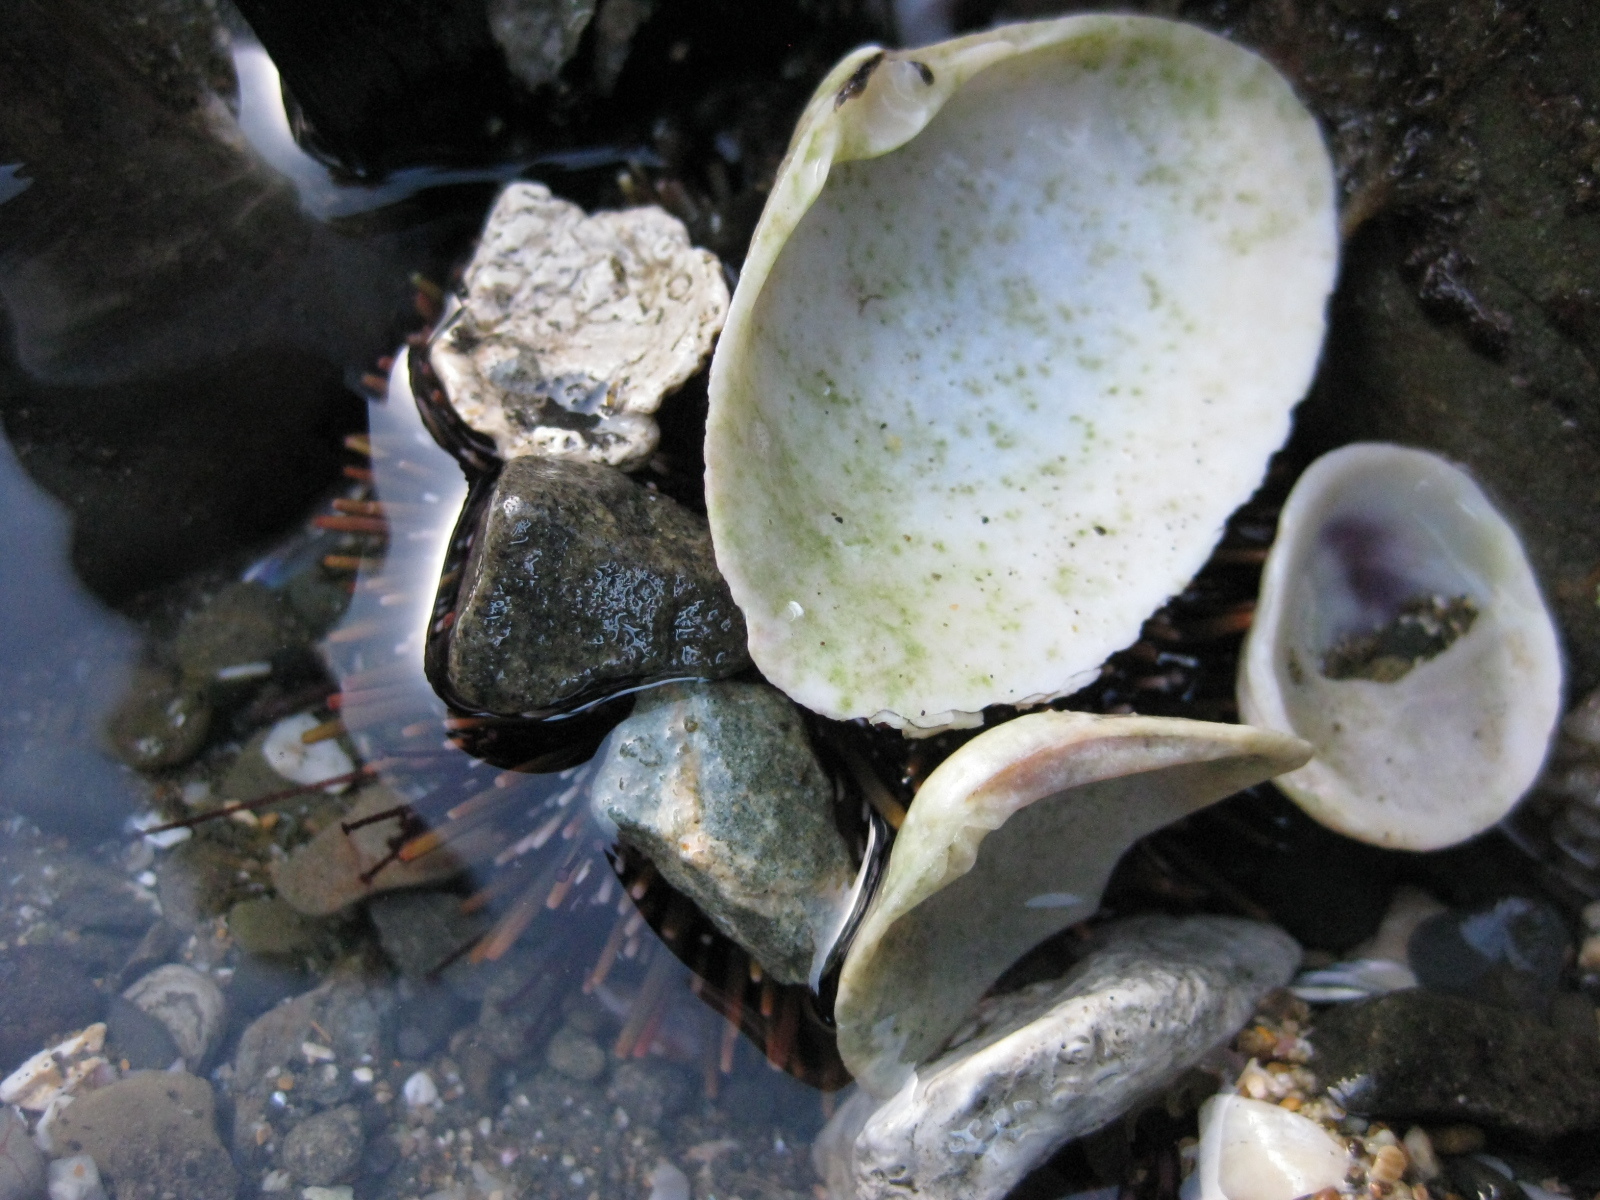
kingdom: Animalia
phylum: Echinodermata
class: Echinoidea
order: Camarodonta
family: Echinometridae
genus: Evechinus
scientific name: Evechinus chloroticus
